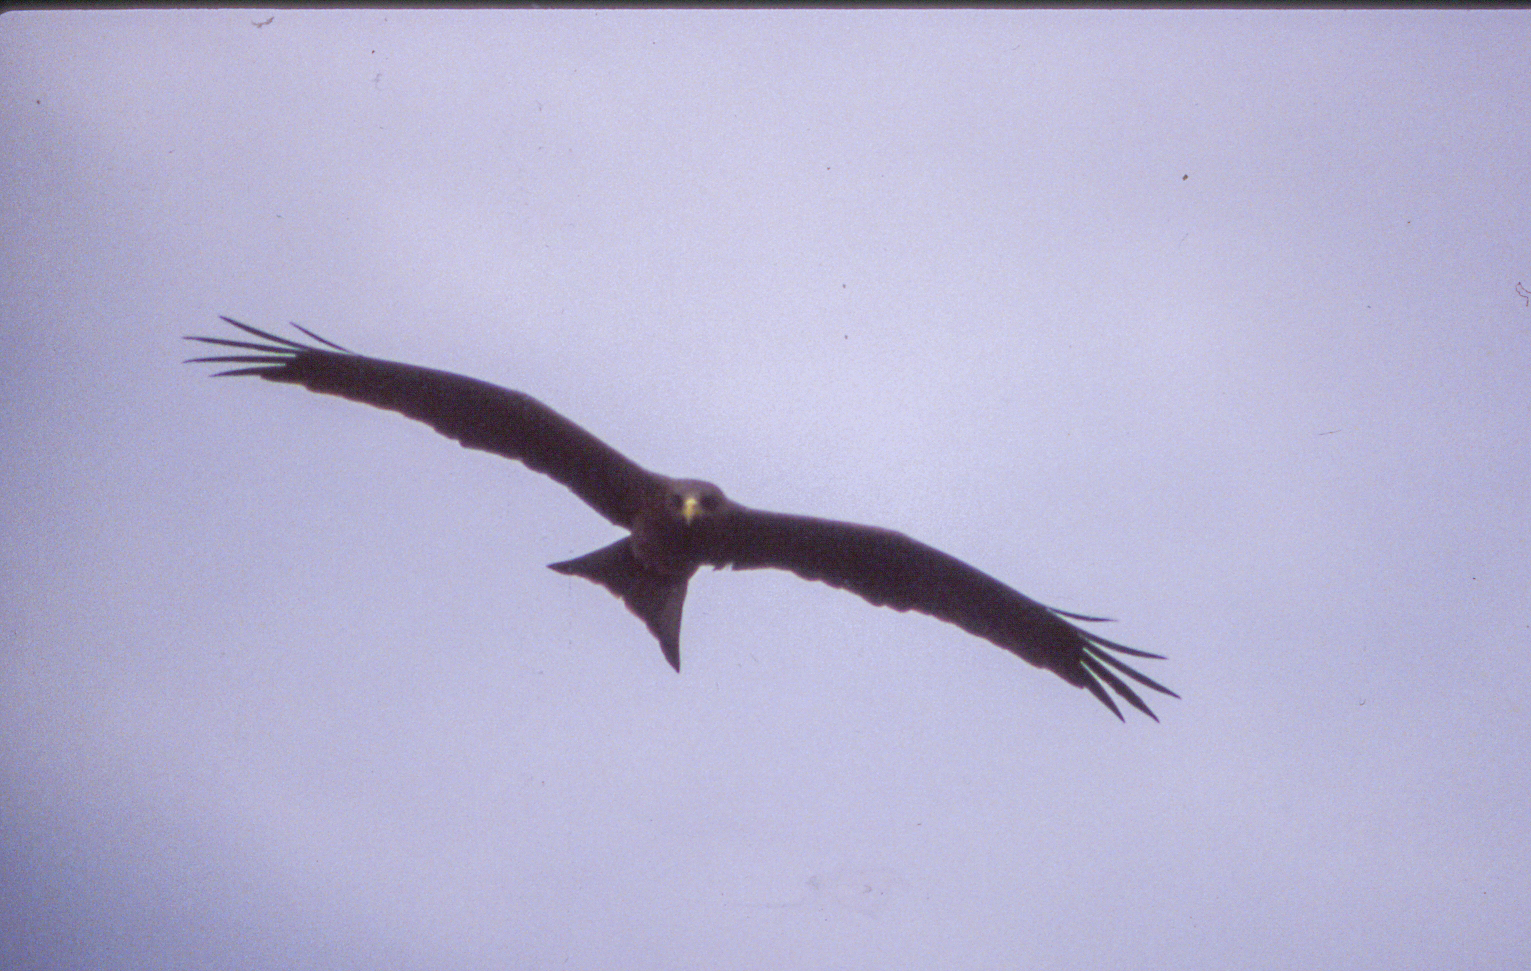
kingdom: Animalia
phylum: Chordata
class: Aves
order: Accipitriformes
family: Accipitridae
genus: Milvus
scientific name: Milvus migrans
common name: Black kite
